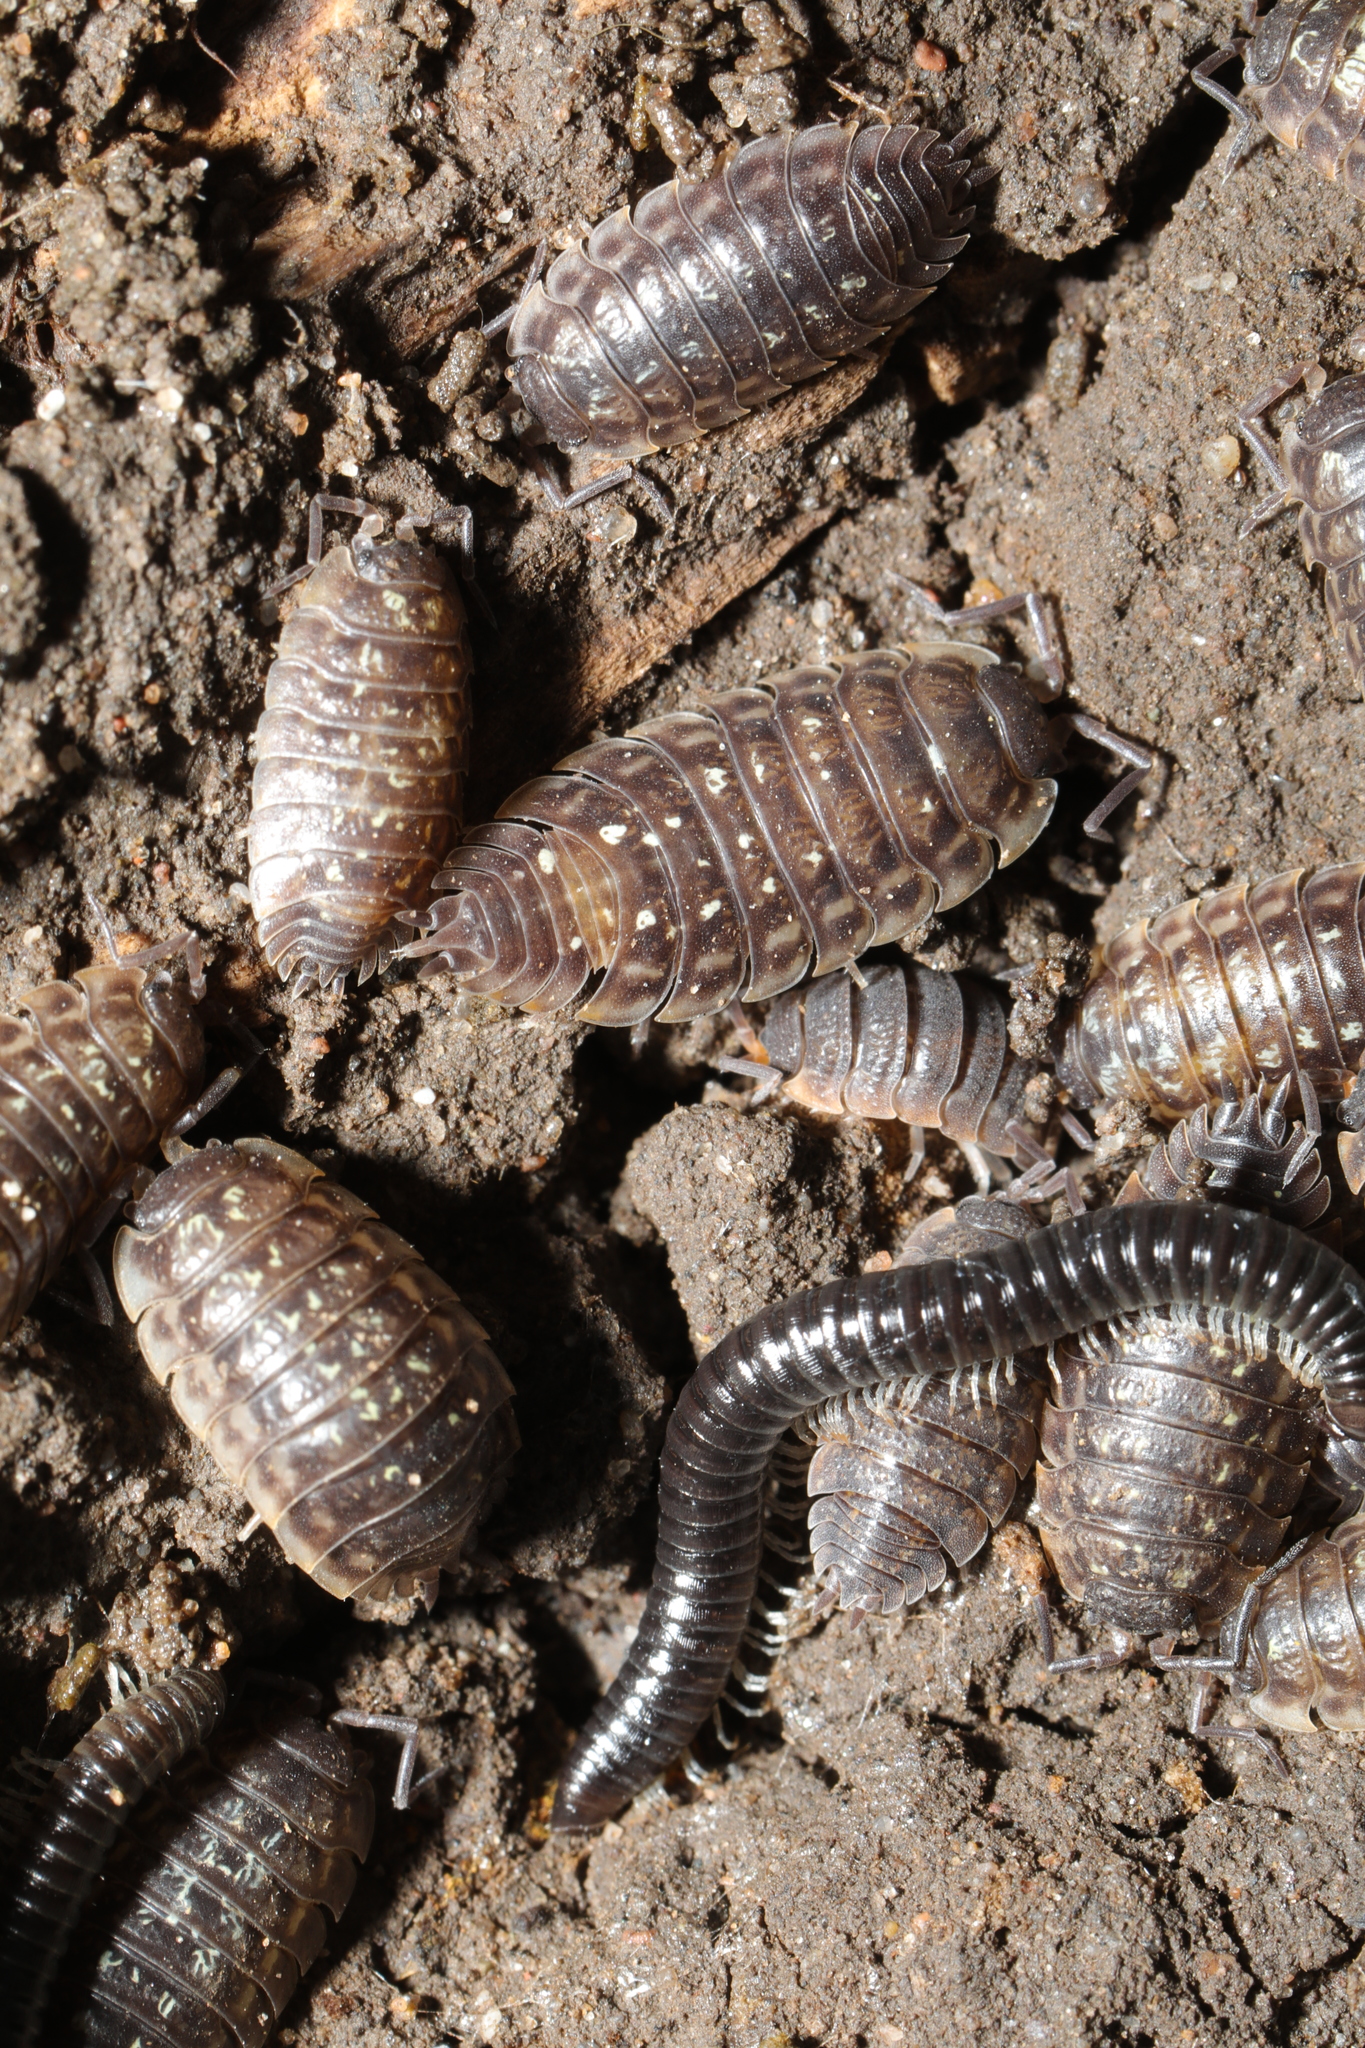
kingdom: Animalia
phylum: Arthropoda
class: Diplopoda
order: Julida
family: Julidae
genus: Tachypodoiulus
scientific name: Tachypodoiulus niger
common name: White-legged snake millipede
